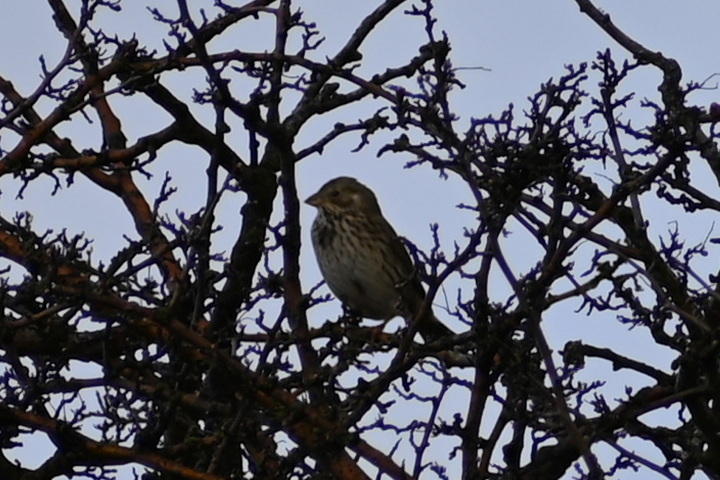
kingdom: Animalia
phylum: Chordata
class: Aves
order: Passeriformes
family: Emberizidae
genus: Emberiza
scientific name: Emberiza calandra
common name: Corn bunting
